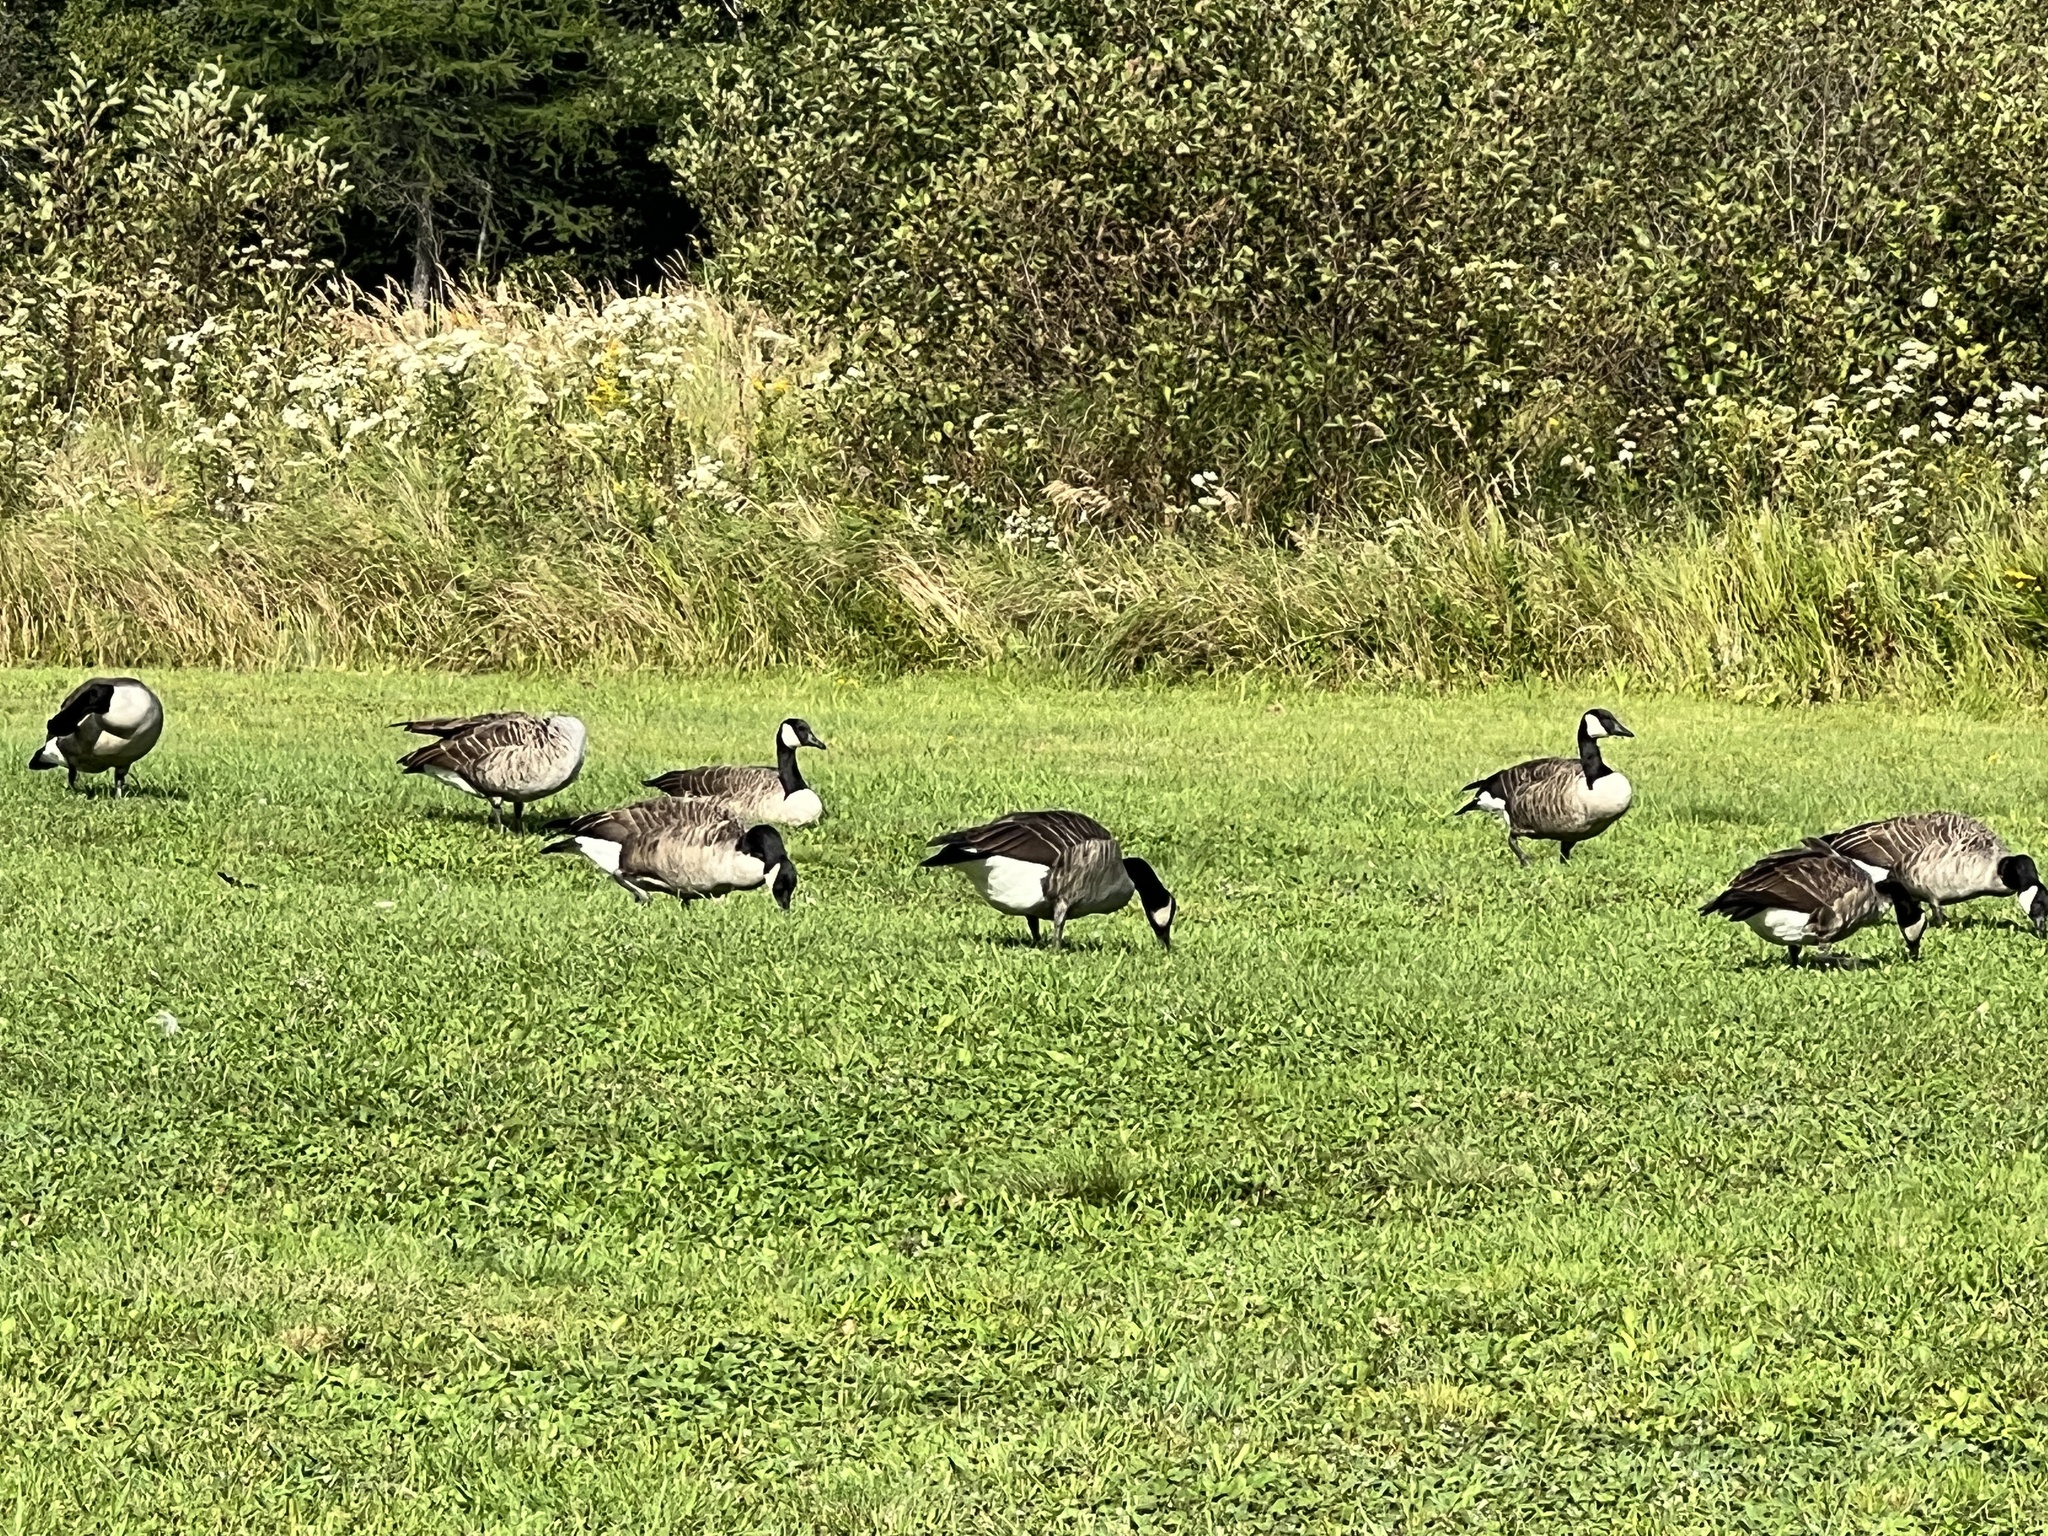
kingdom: Animalia
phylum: Chordata
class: Aves
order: Anseriformes
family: Anatidae
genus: Branta
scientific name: Branta canadensis
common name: Canada goose
